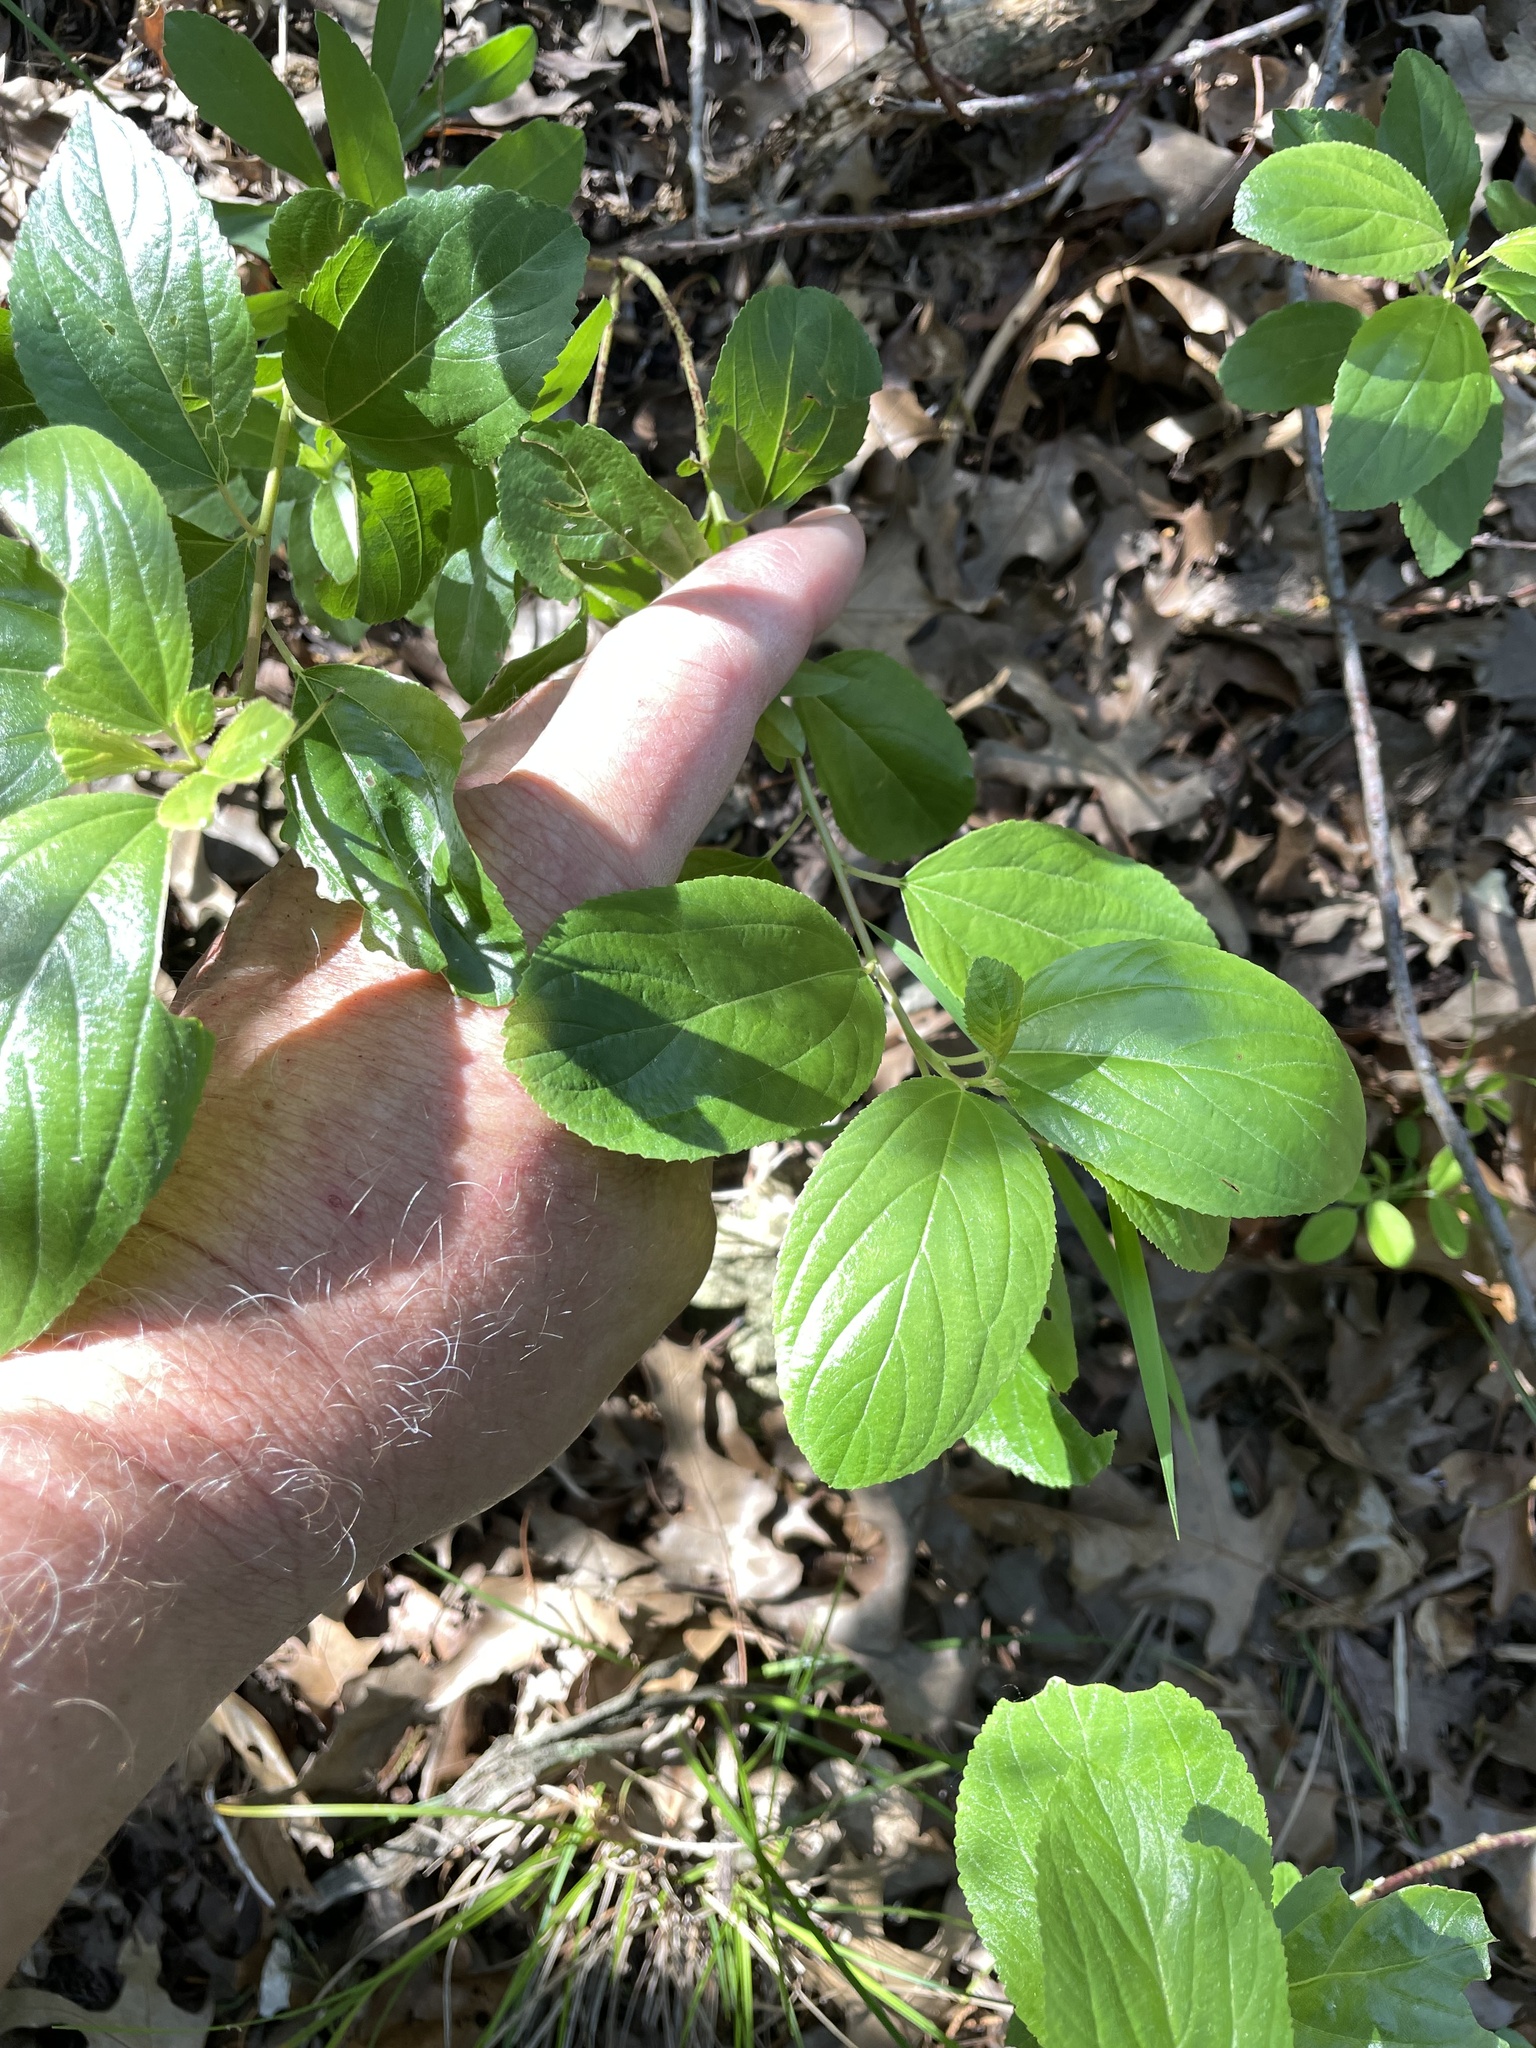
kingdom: Plantae
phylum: Tracheophyta
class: Magnoliopsida
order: Rosales
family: Rhamnaceae
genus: Ceanothus
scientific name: Ceanothus herbaceus
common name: Inland ceanothus
